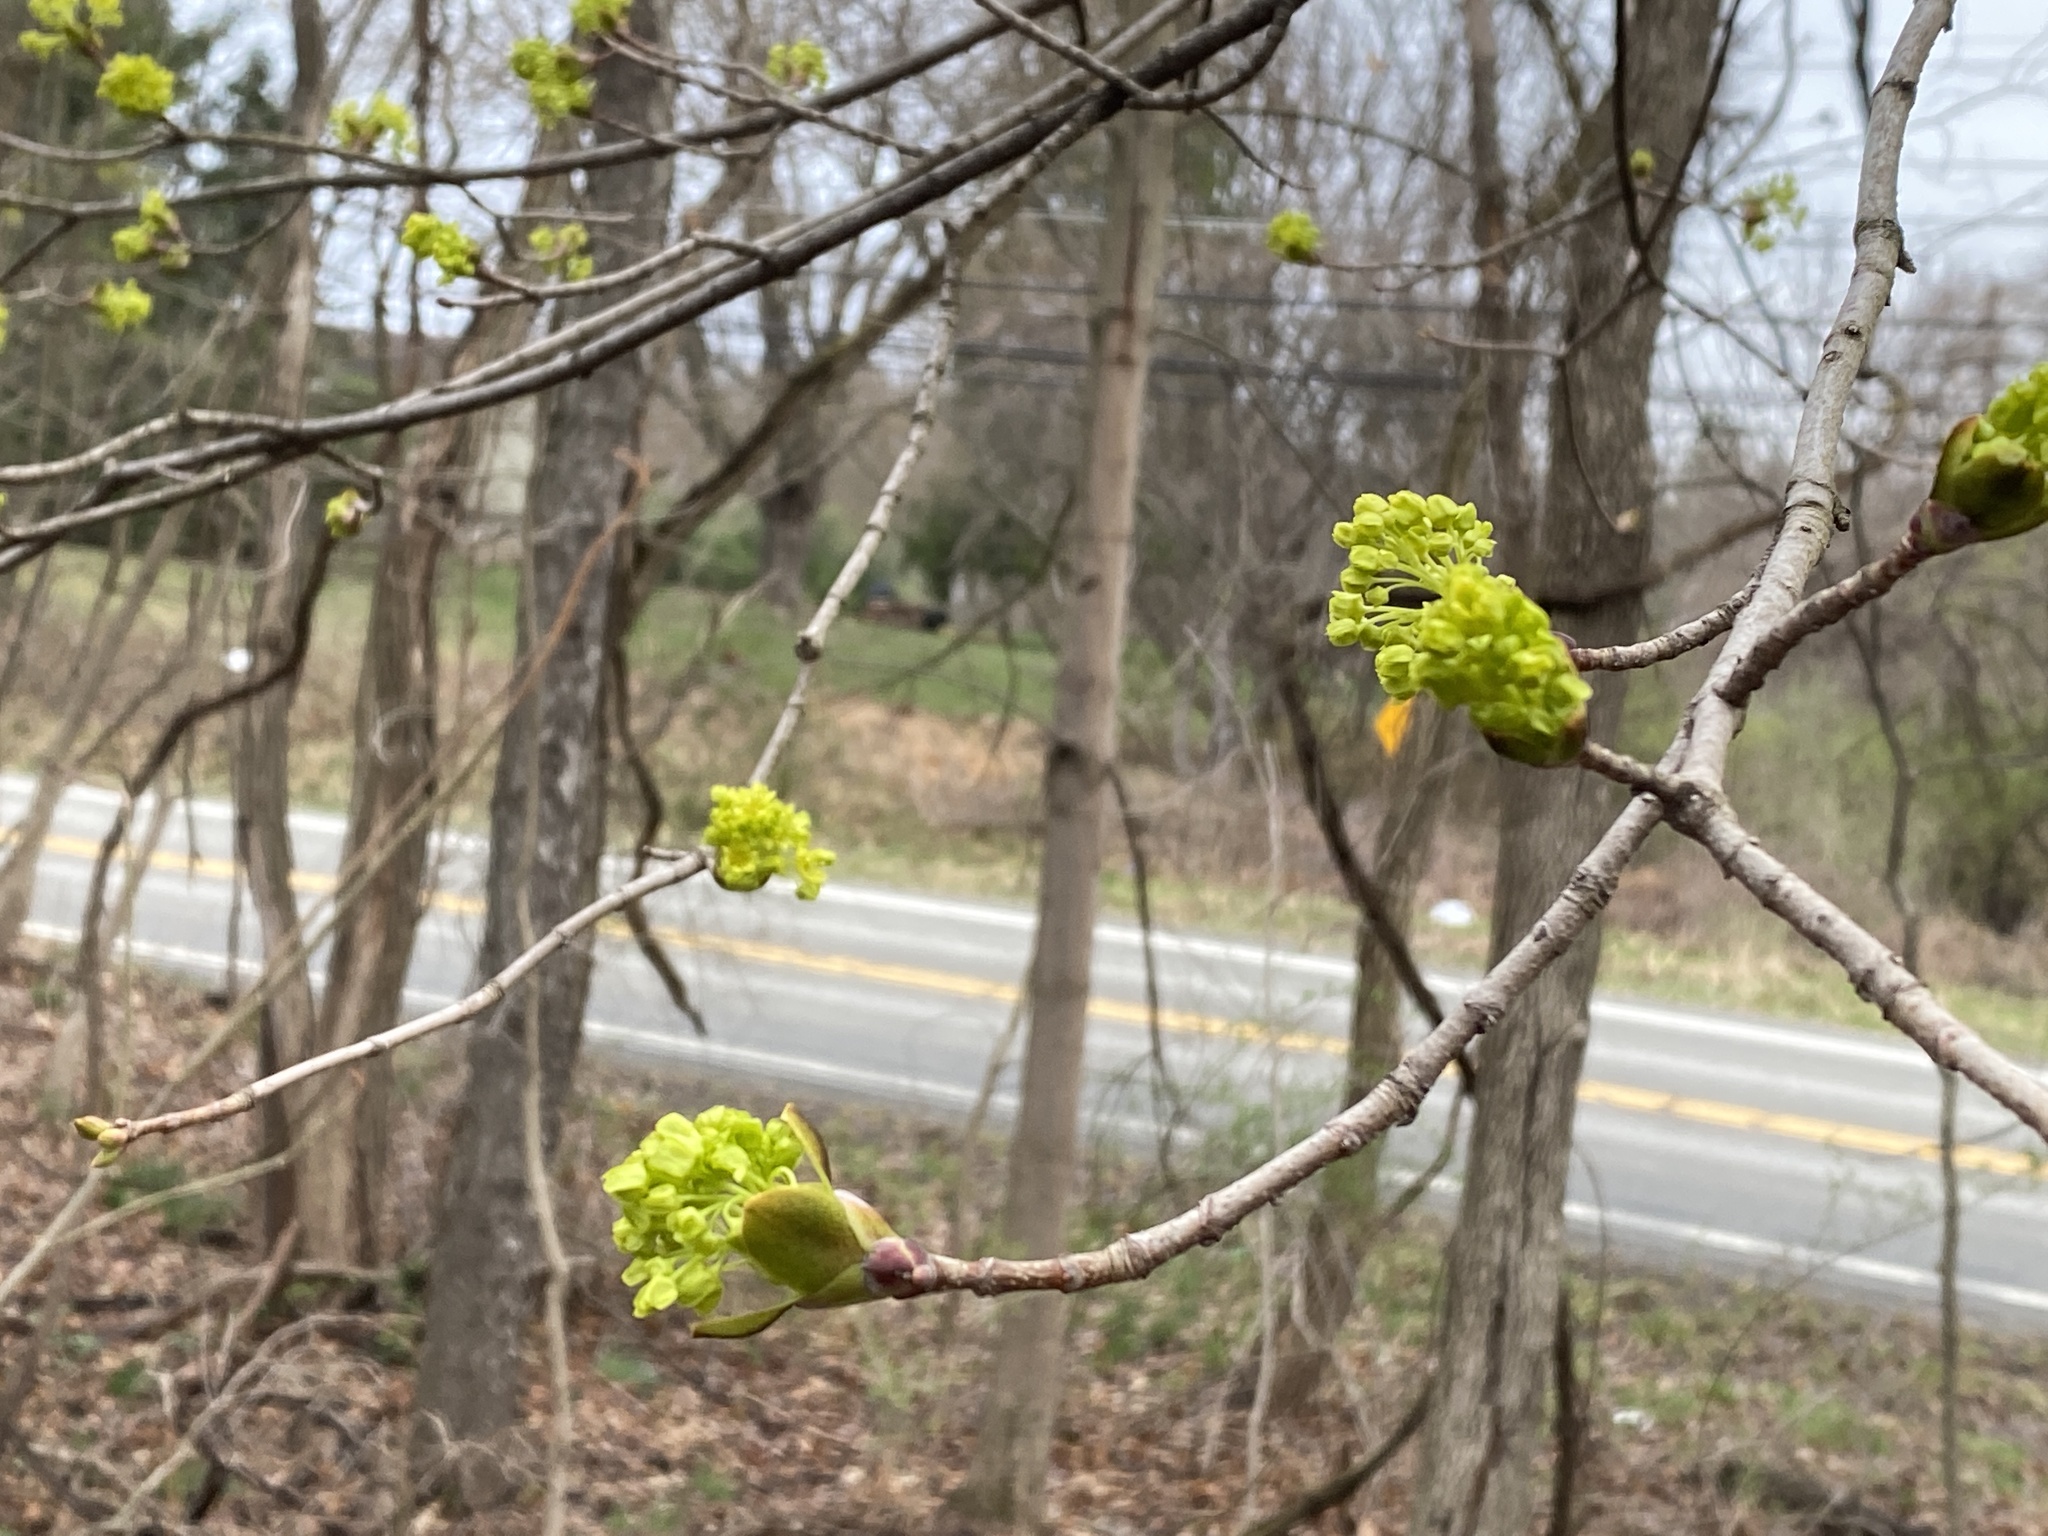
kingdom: Plantae
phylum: Tracheophyta
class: Magnoliopsida
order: Sapindales
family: Sapindaceae
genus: Acer
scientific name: Acer platanoides
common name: Norway maple
